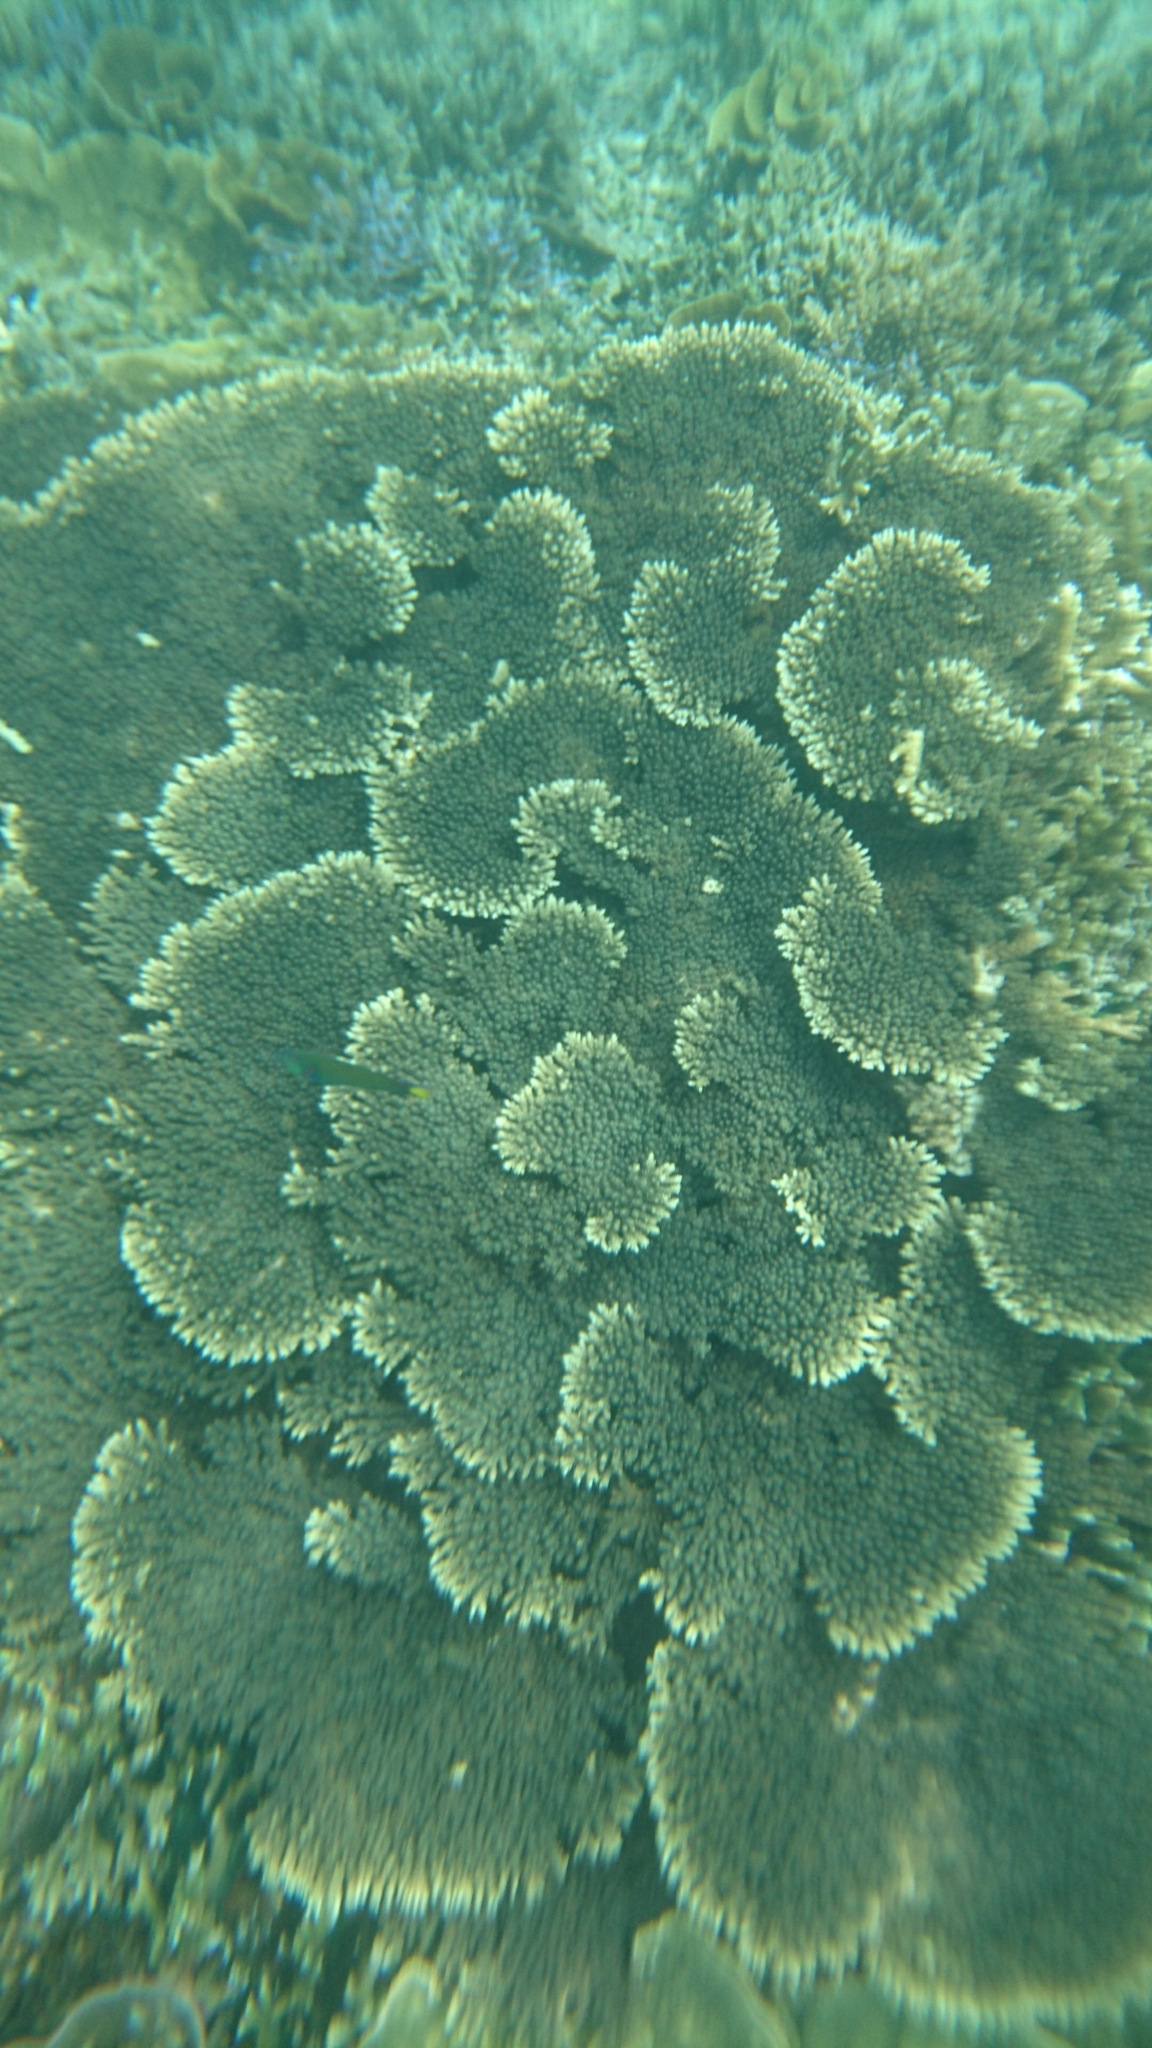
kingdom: Animalia
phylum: Cnidaria
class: Anthozoa
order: Scleractinia
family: Acroporidae
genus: Acropora
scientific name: Acropora
